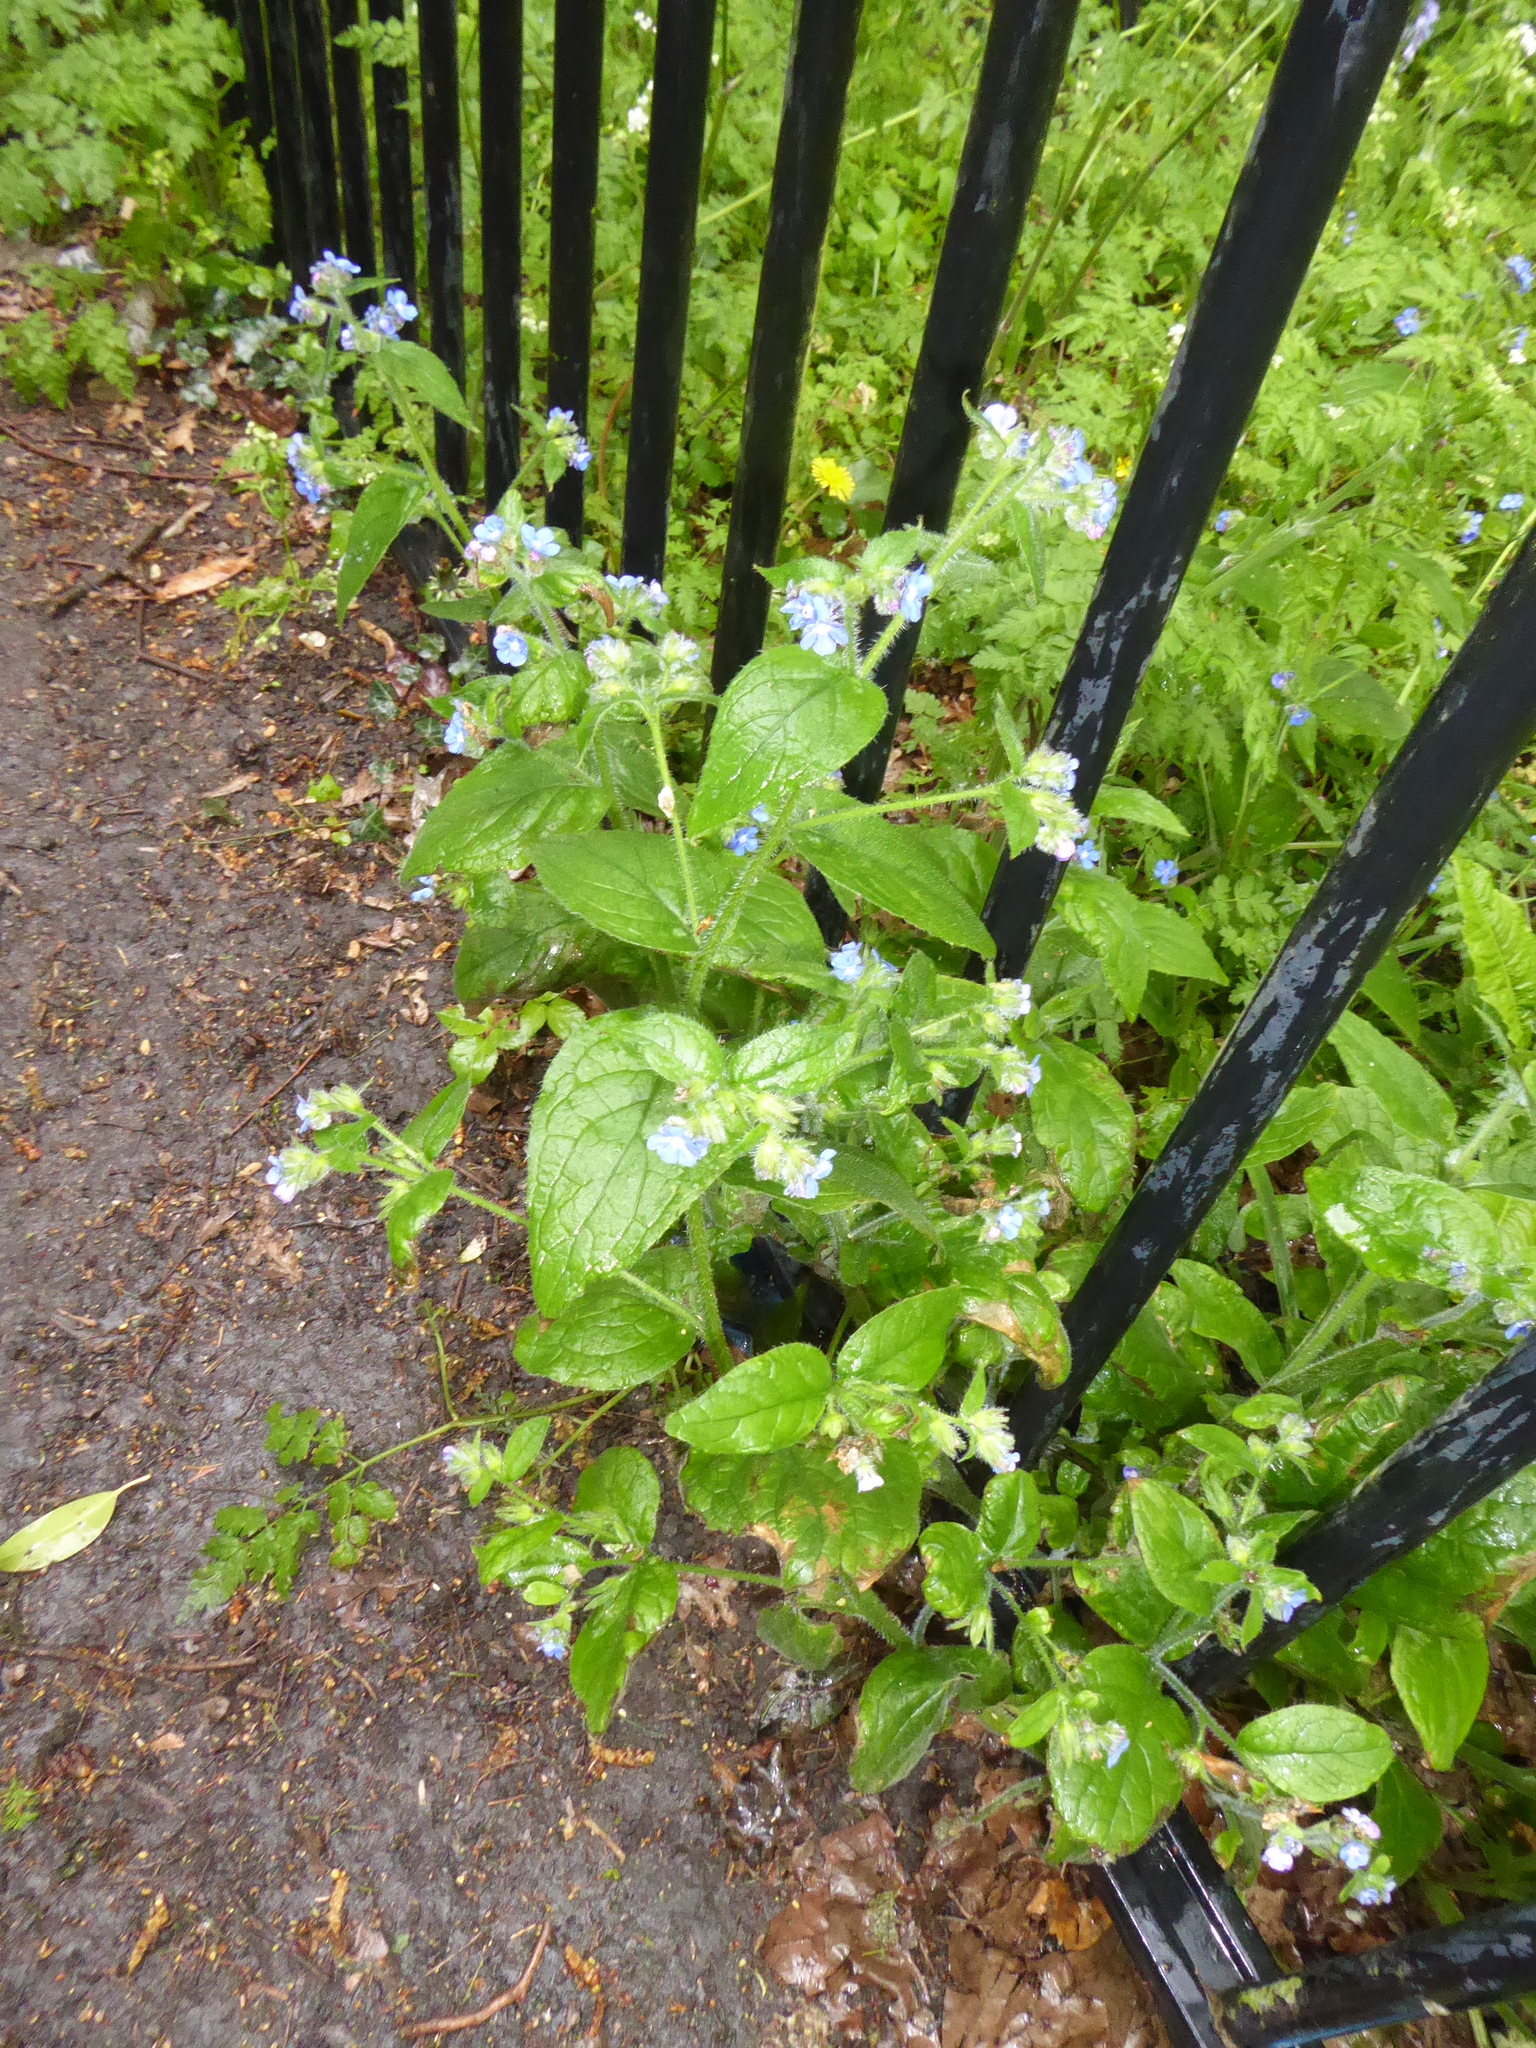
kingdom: Plantae
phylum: Tracheophyta
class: Magnoliopsida
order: Boraginales
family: Boraginaceae
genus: Pentaglottis
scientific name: Pentaglottis sempervirens
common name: Green alkanet
